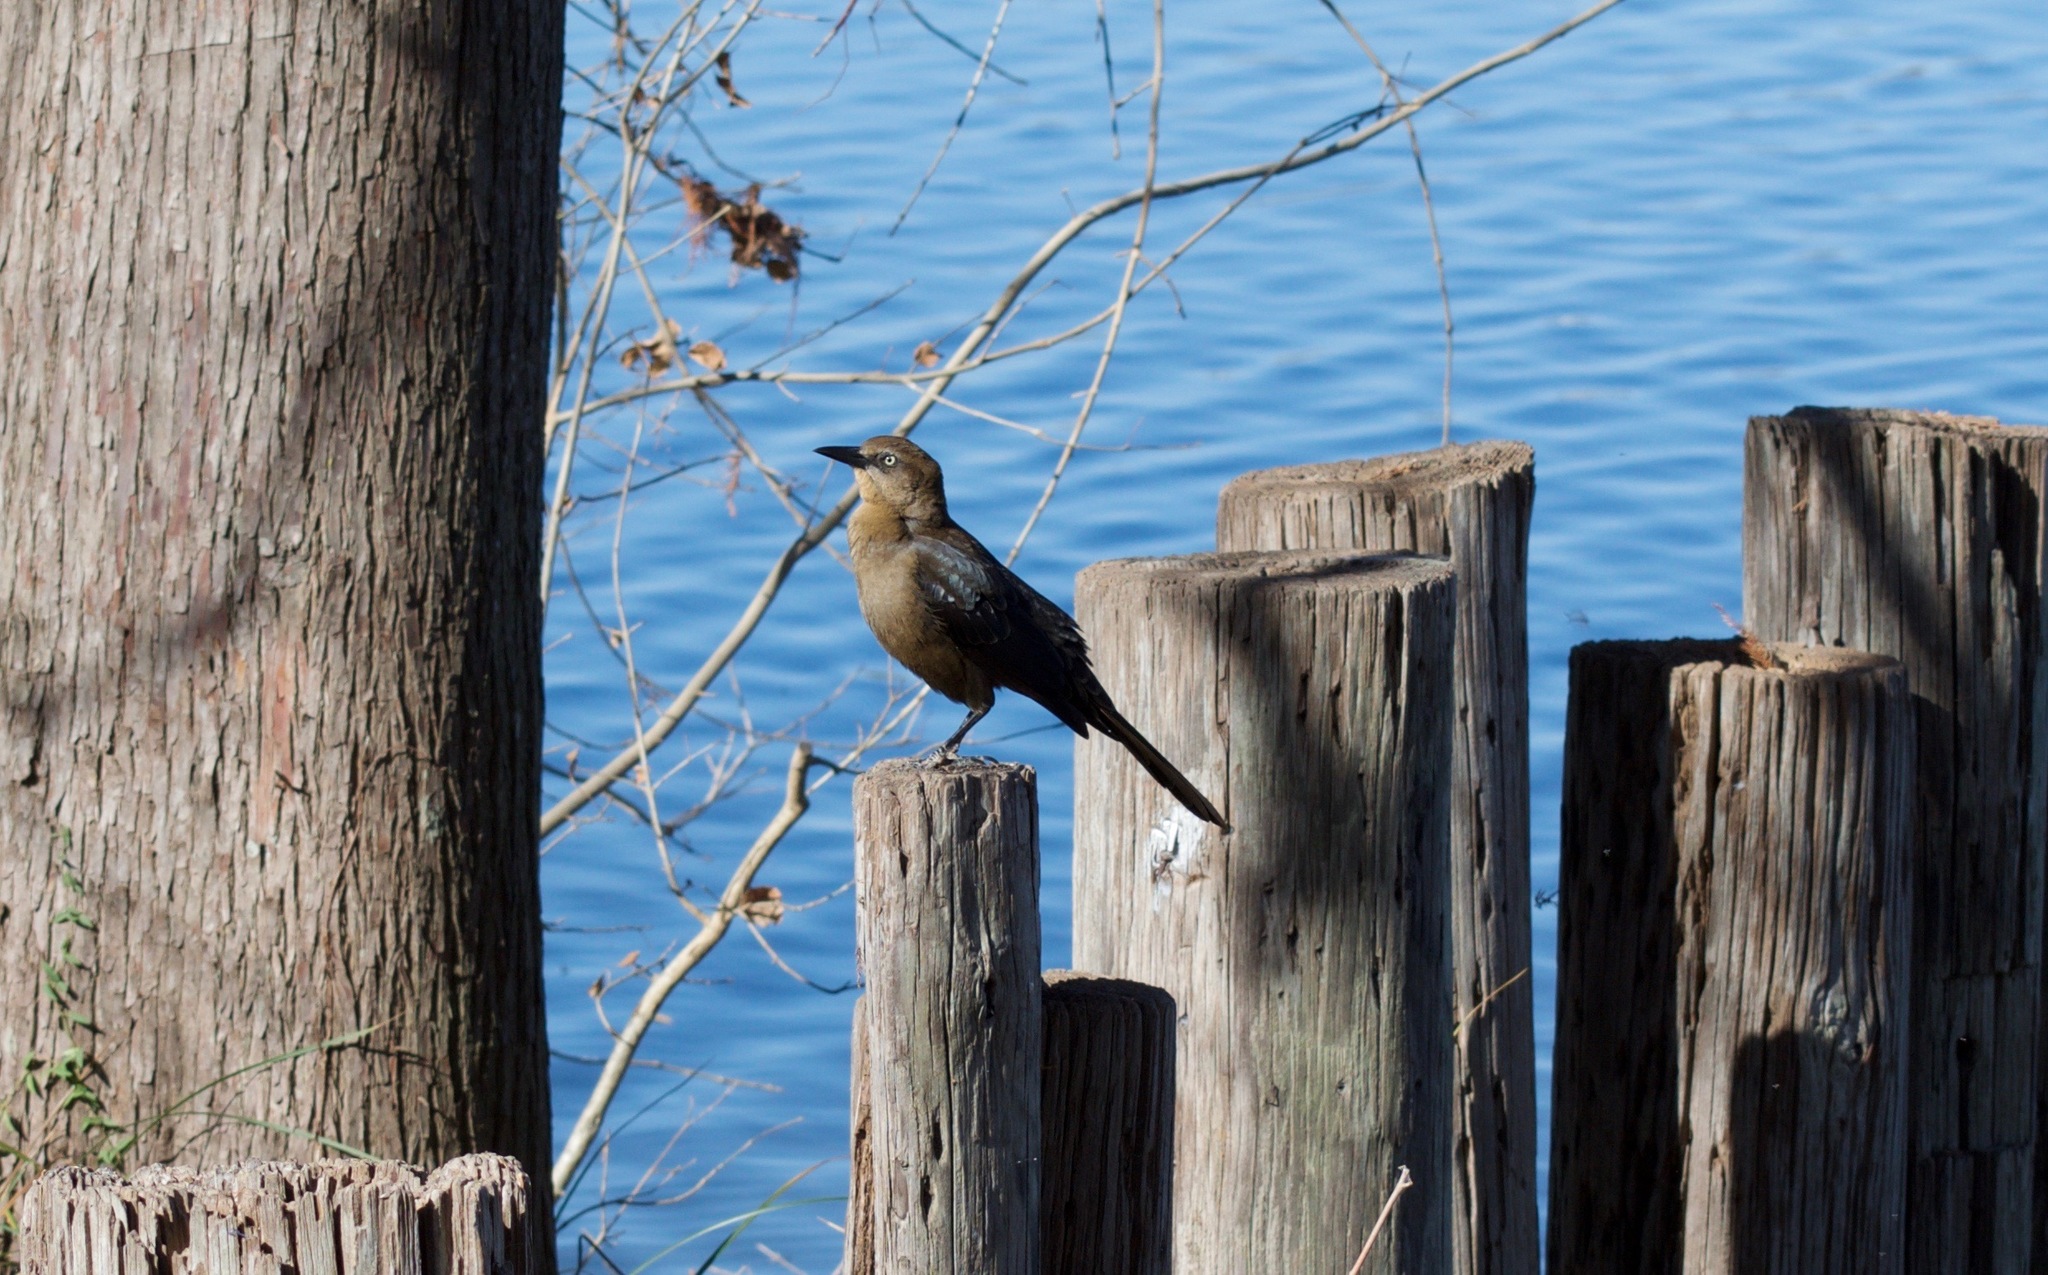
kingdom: Animalia
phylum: Chordata
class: Aves
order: Passeriformes
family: Icteridae
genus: Quiscalus
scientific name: Quiscalus mexicanus
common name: Great-tailed grackle
